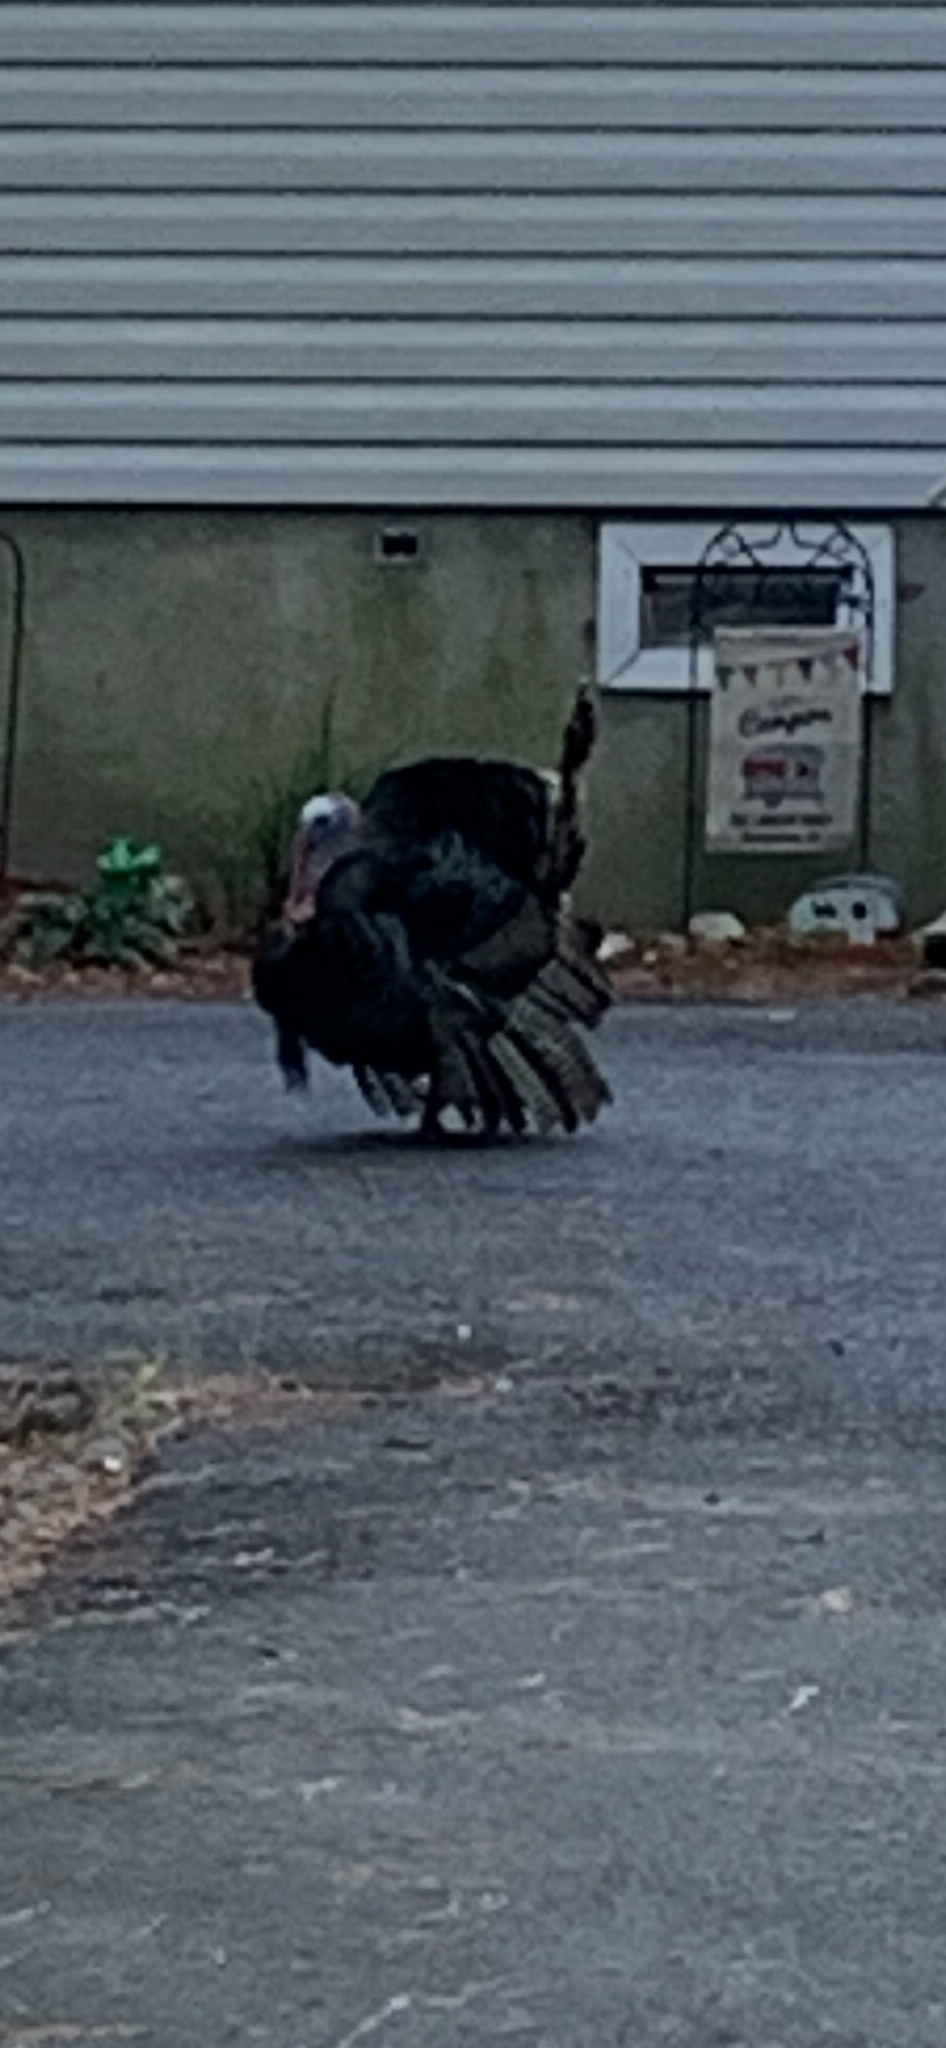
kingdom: Animalia
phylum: Chordata
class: Aves
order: Galliformes
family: Phasianidae
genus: Meleagris
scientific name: Meleagris gallopavo
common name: Wild turkey
